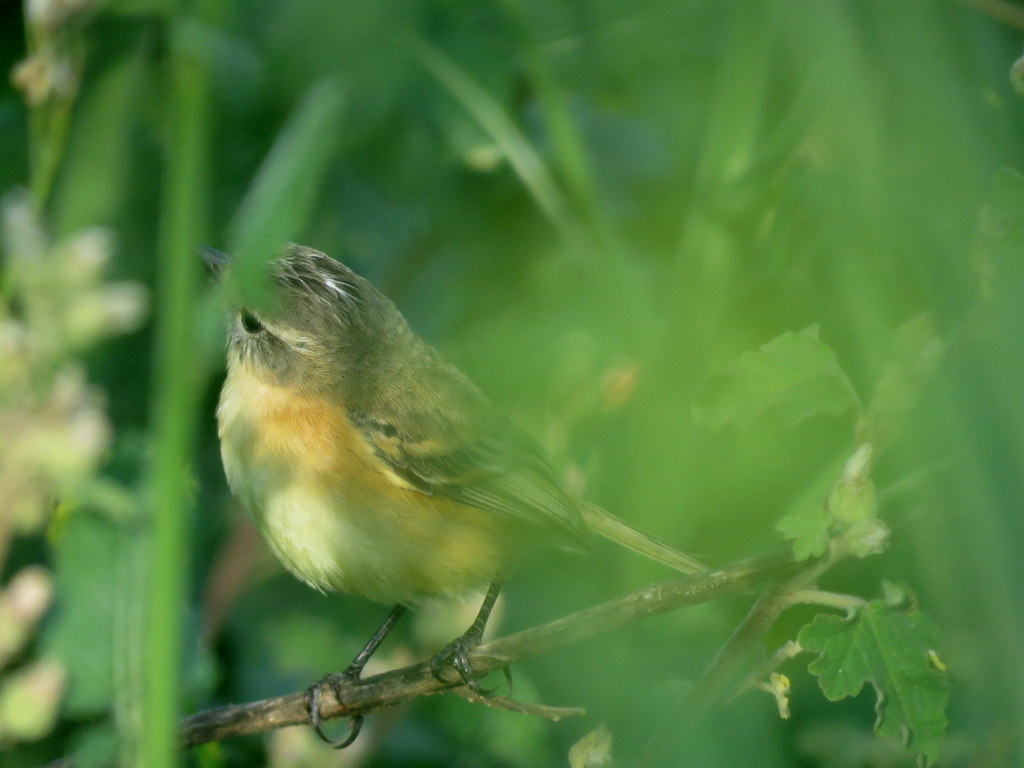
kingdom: Animalia
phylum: Chordata
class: Aves
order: Passeriformes
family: Tyrannidae
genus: Polystictus
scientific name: Polystictus pectoralis
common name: Bearded tachuri
